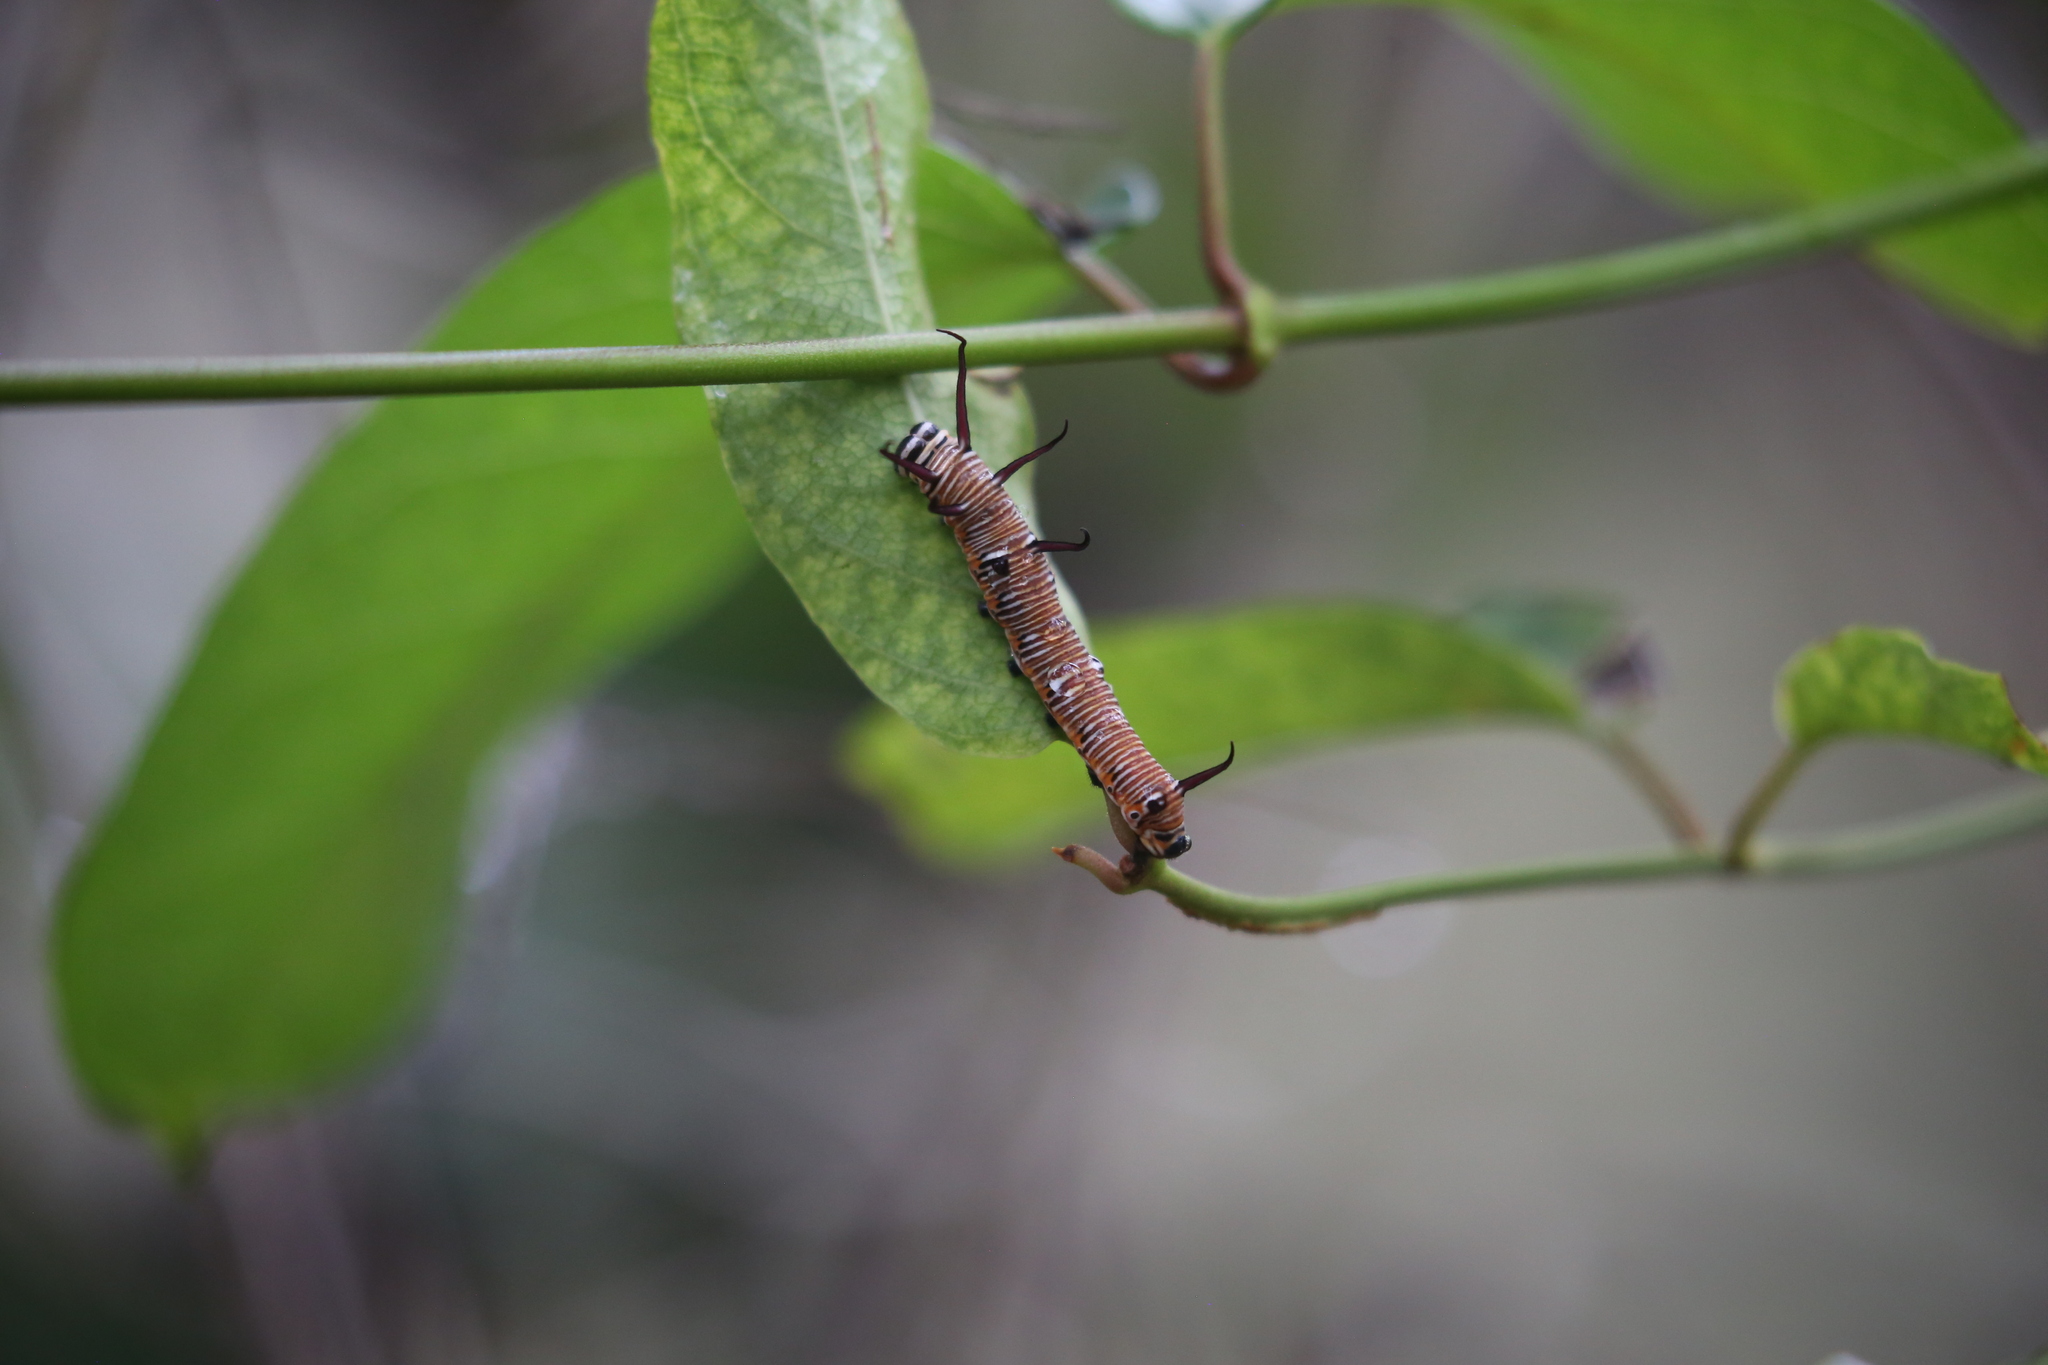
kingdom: Animalia
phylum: Arthropoda
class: Insecta
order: Lepidoptera
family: Nymphalidae
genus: Euploea
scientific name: Euploea core
